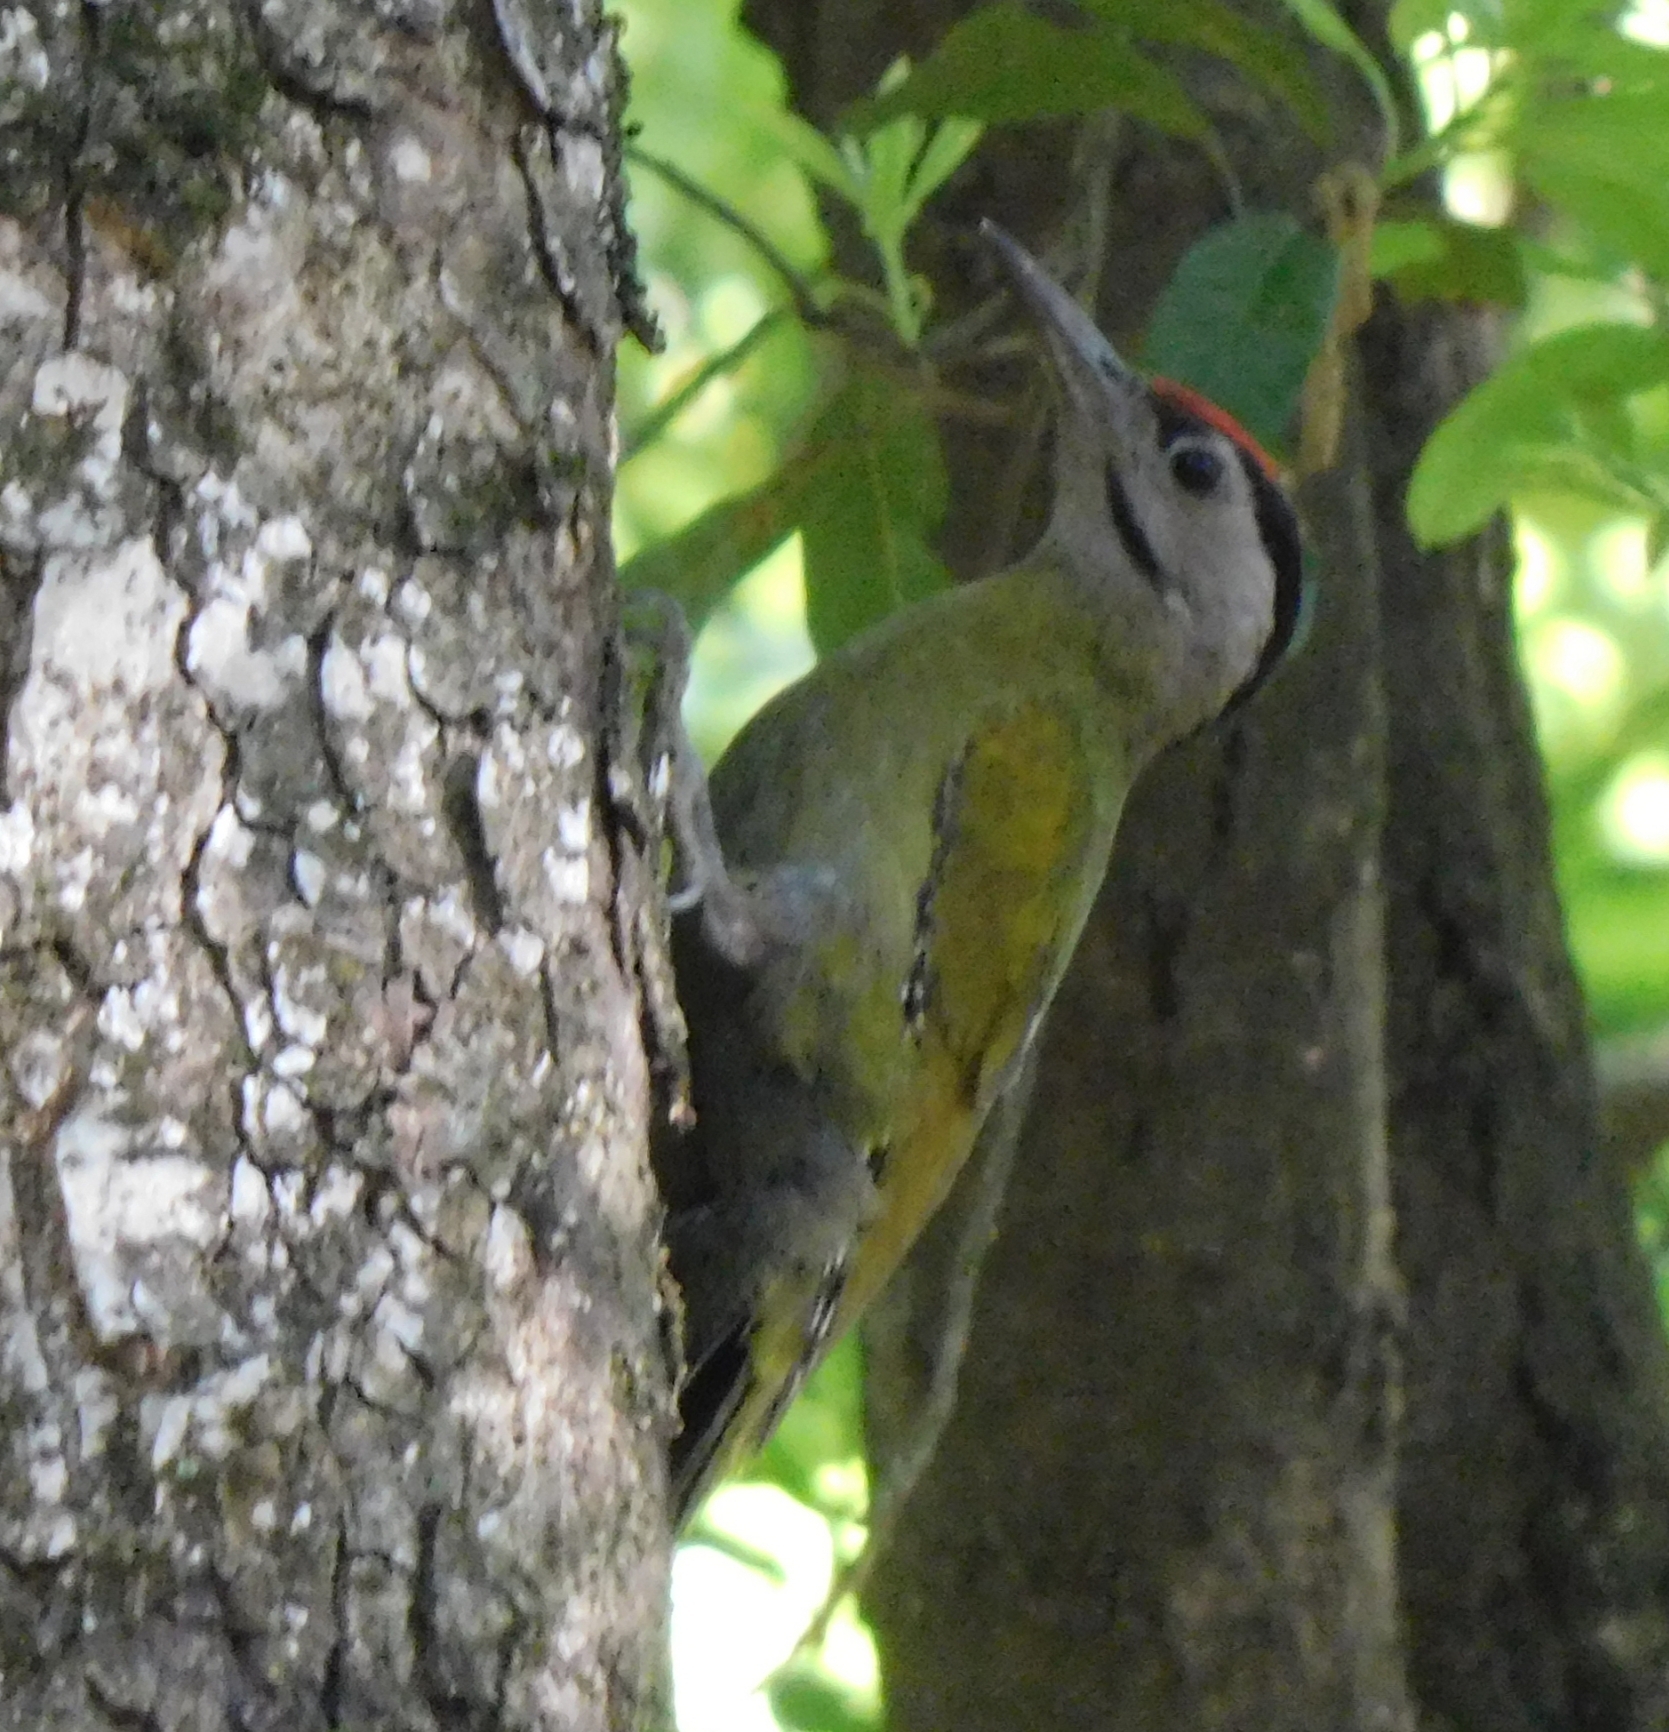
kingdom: Animalia
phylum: Chordata
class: Aves
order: Piciformes
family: Picidae
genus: Picus
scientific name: Picus canus
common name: Grey-headed woodpecker
